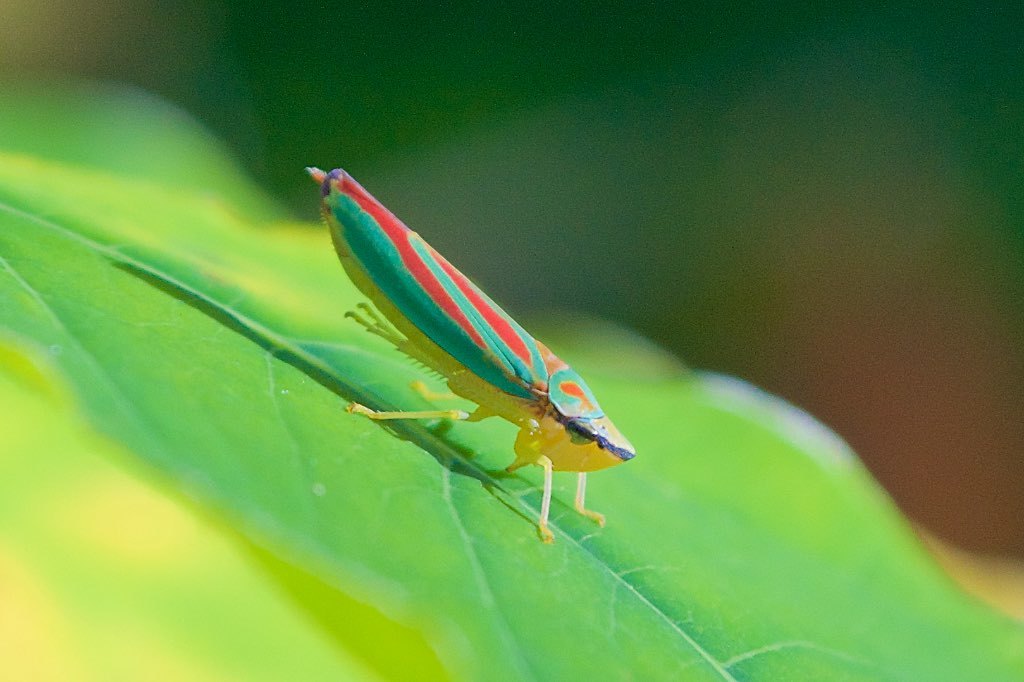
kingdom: Animalia
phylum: Arthropoda
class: Insecta
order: Hemiptera
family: Cicadellidae
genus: Graphocephala
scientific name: Graphocephala coccinea
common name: Candy-striped leafhopper
